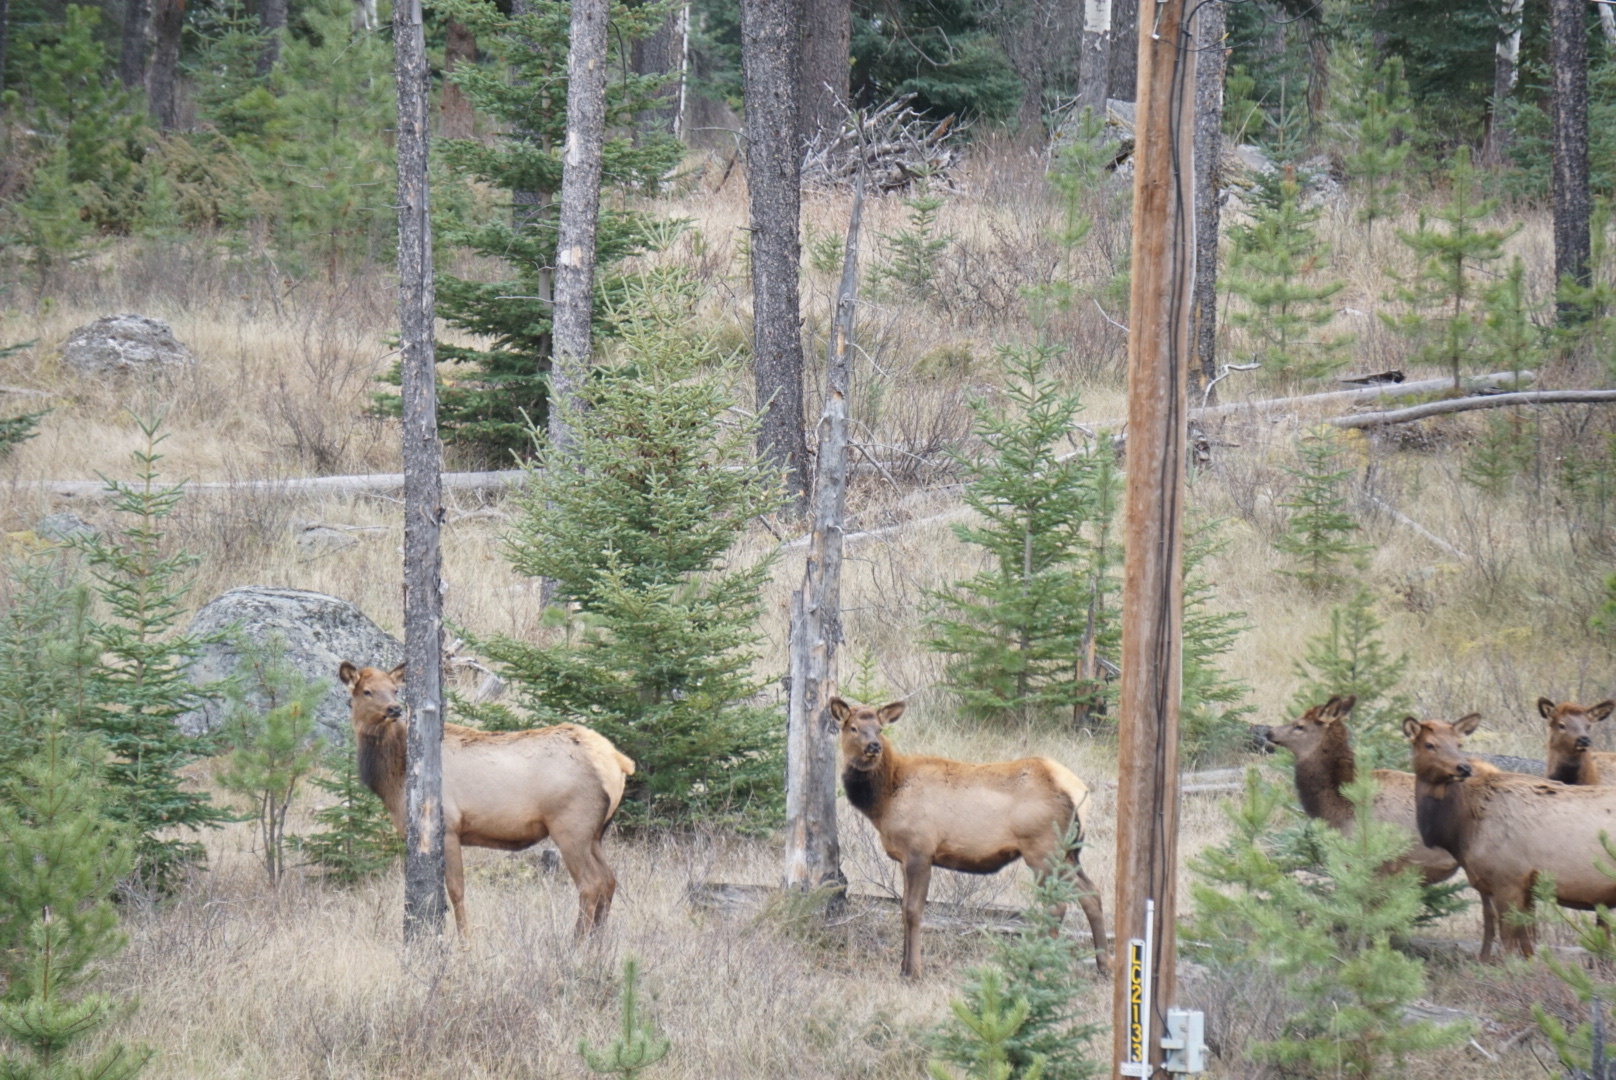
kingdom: Animalia
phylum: Chordata
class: Mammalia
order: Artiodactyla
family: Cervidae
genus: Cervus
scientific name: Cervus elaphus
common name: Red deer
